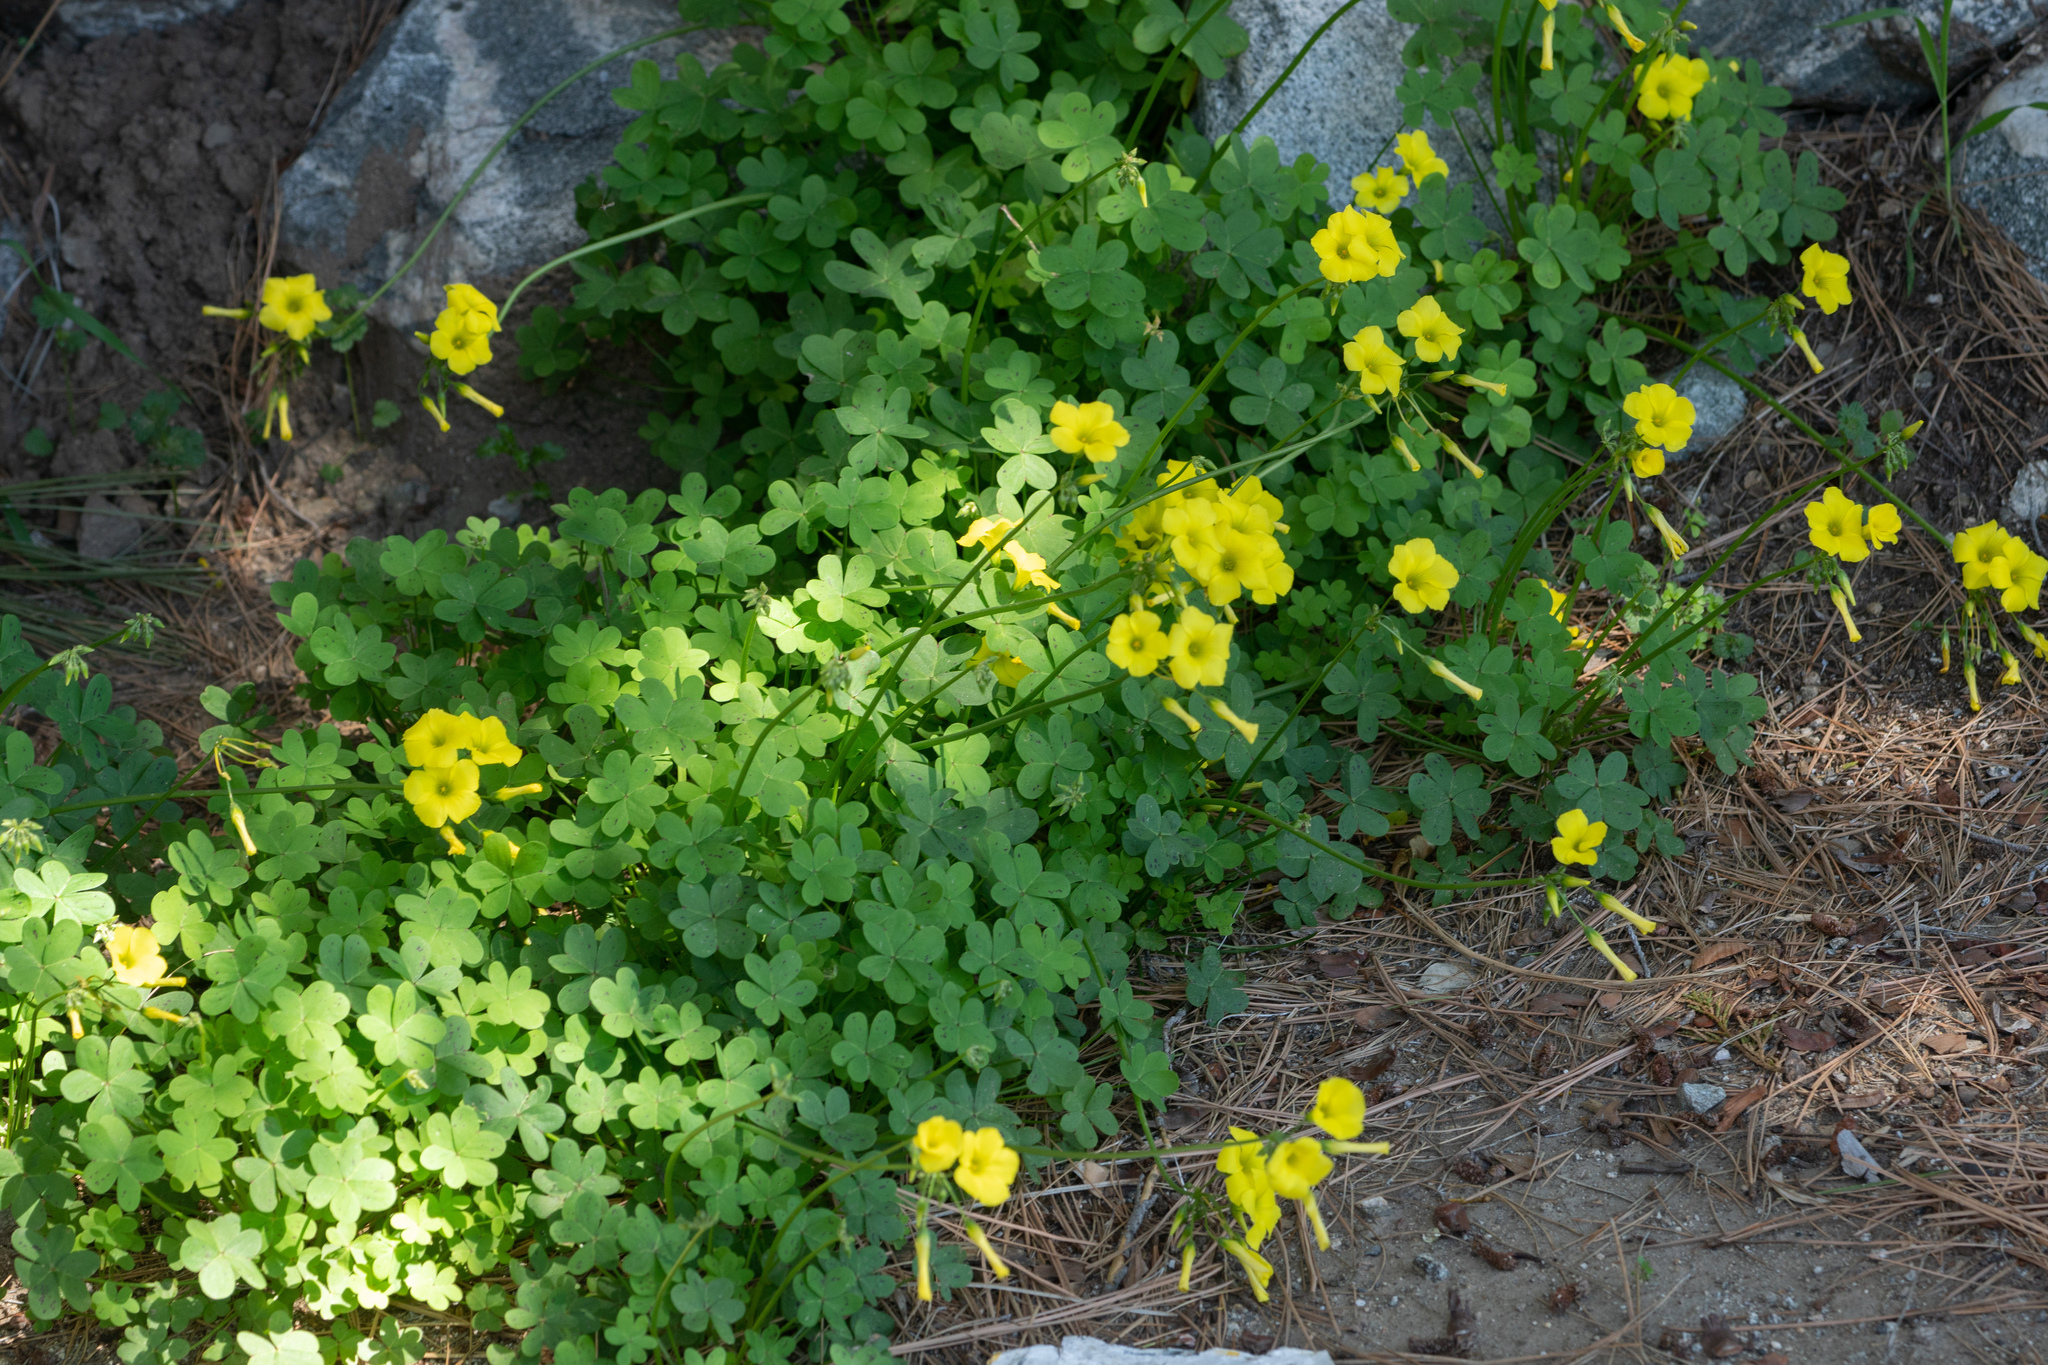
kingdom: Plantae
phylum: Tracheophyta
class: Magnoliopsida
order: Oxalidales
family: Oxalidaceae
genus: Oxalis
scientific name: Oxalis pes-caprae
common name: Bermuda-buttercup
